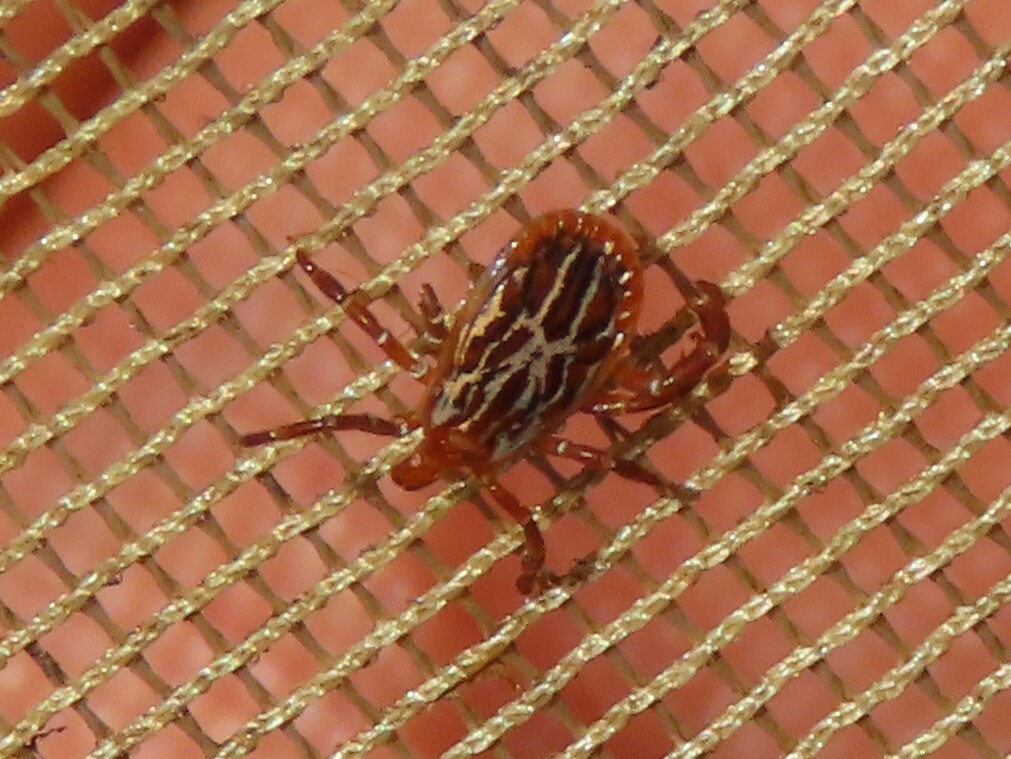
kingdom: Animalia
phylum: Arthropoda
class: Arachnida
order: Ixodida
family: Ixodidae
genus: Amblyomma
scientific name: Amblyomma maculatum
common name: Gulf coast tick
